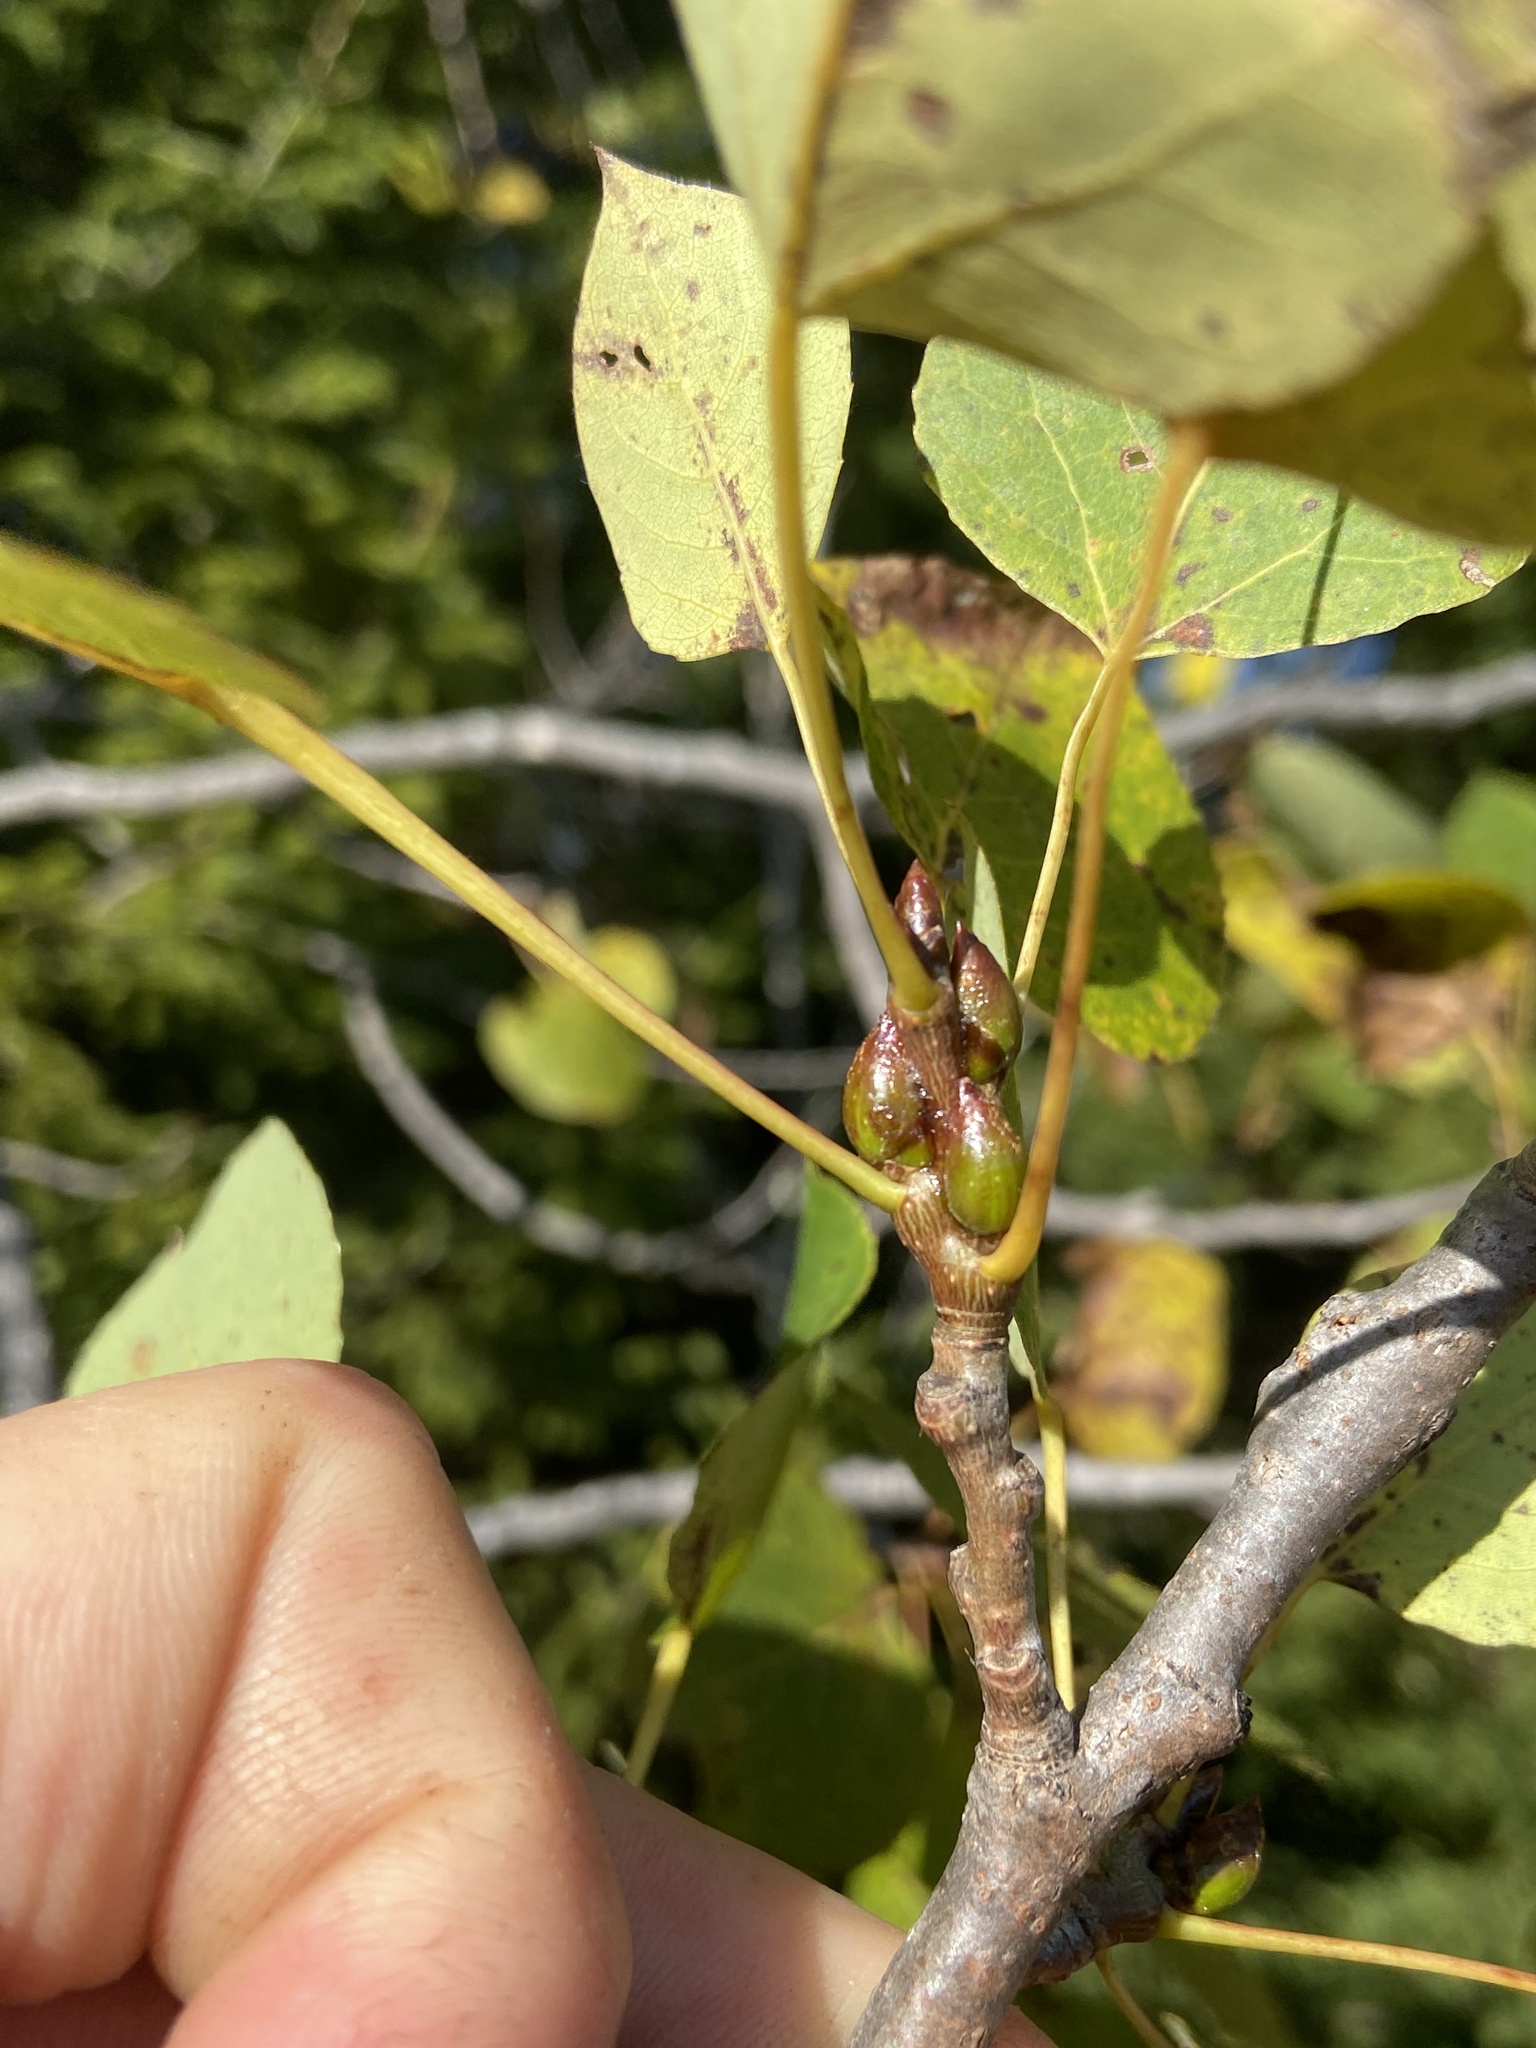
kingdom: Plantae
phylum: Tracheophyta
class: Magnoliopsida
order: Malpighiales
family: Salicaceae
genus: Populus
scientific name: Populus tremuloides
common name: Quaking aspen
